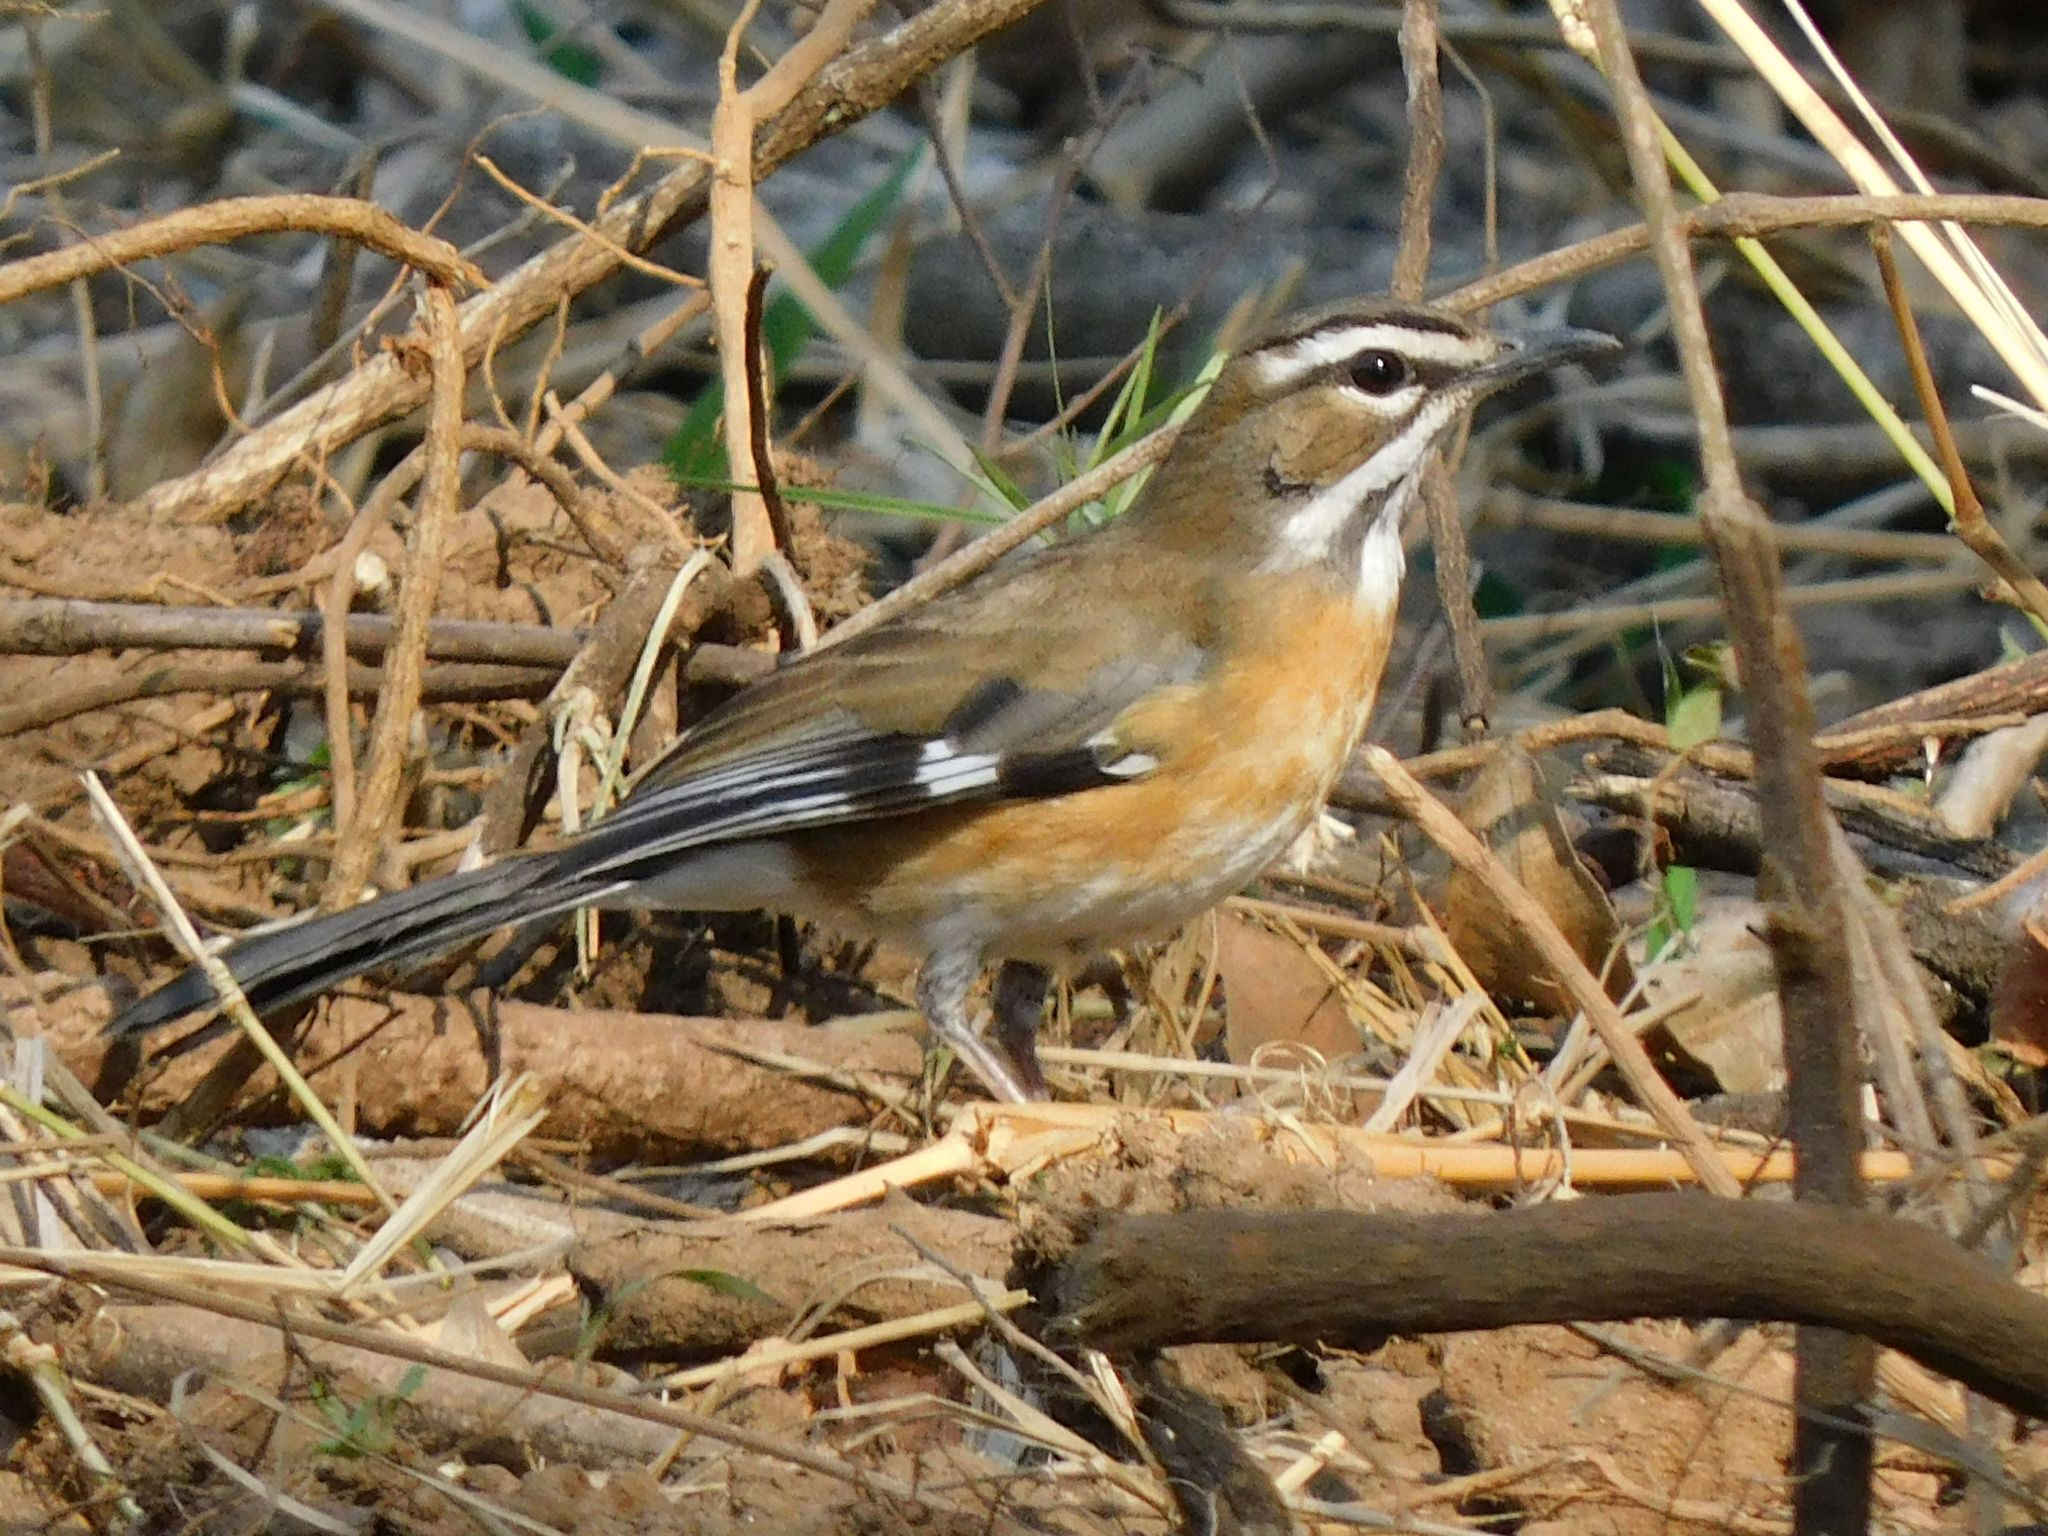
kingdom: Animalia
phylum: Chordata
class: Aves
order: Passeriformes
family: Muscicapidae
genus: Erythropygia
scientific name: Erythropygia quadrivirgata
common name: Bearded scrub robin
